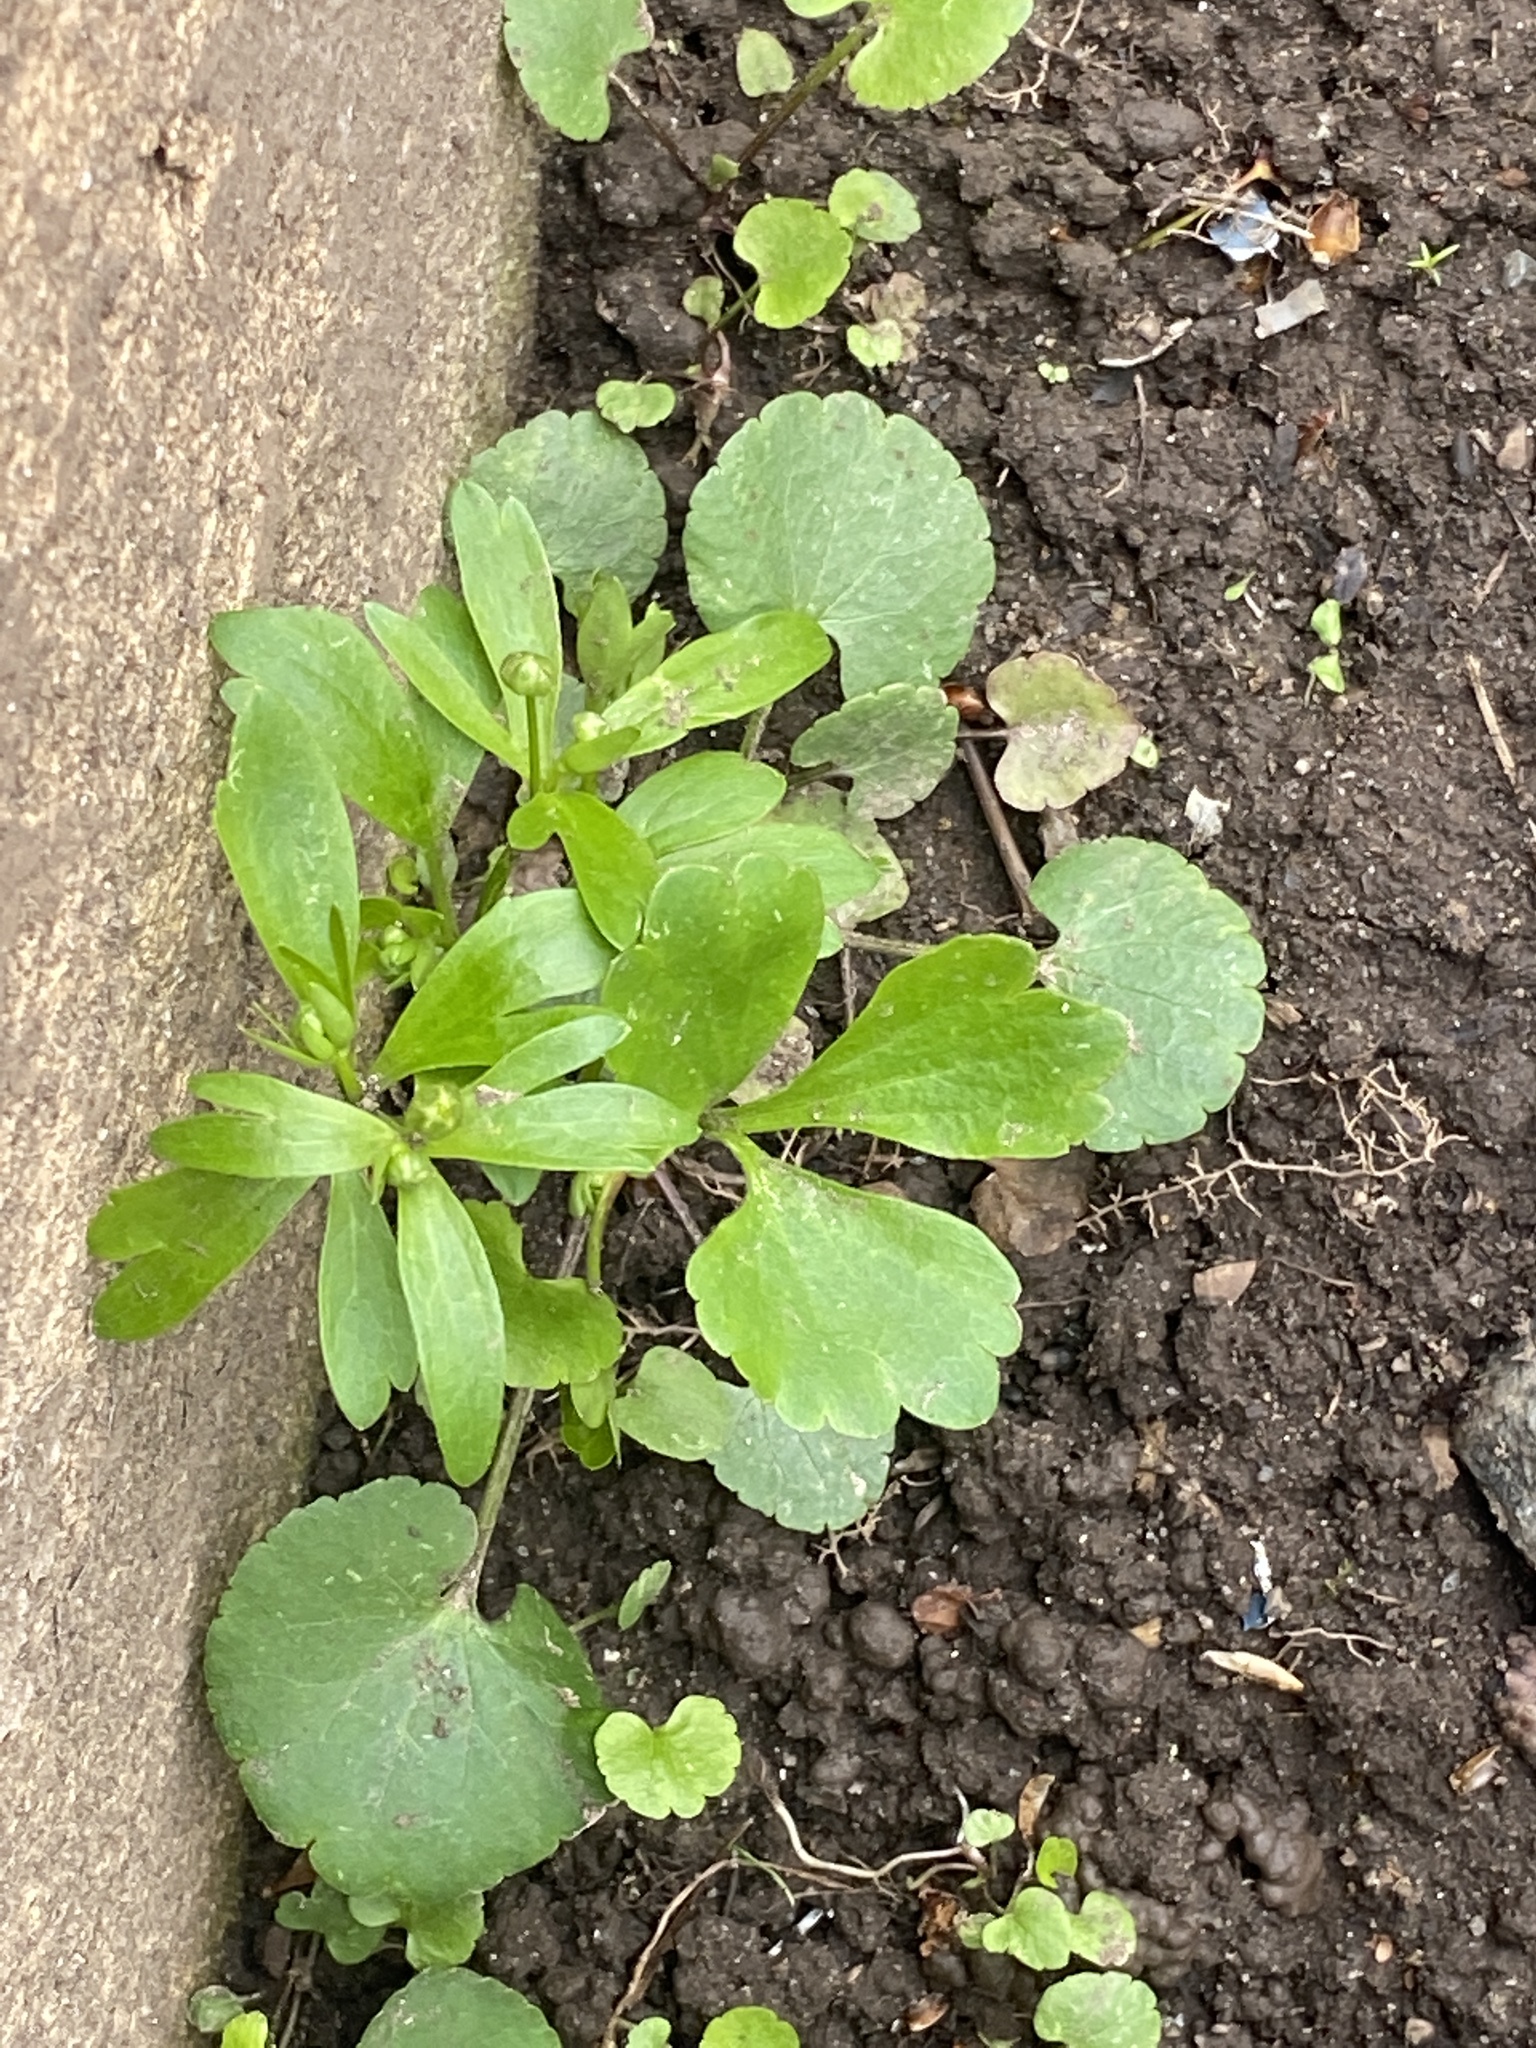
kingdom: Plantae
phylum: Tracheophyta
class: Magnoliopsida
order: Ranunculales
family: Ranunculaceae
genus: Ranunculus
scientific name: Ranunculus abortivus
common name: Early wood buttercup
